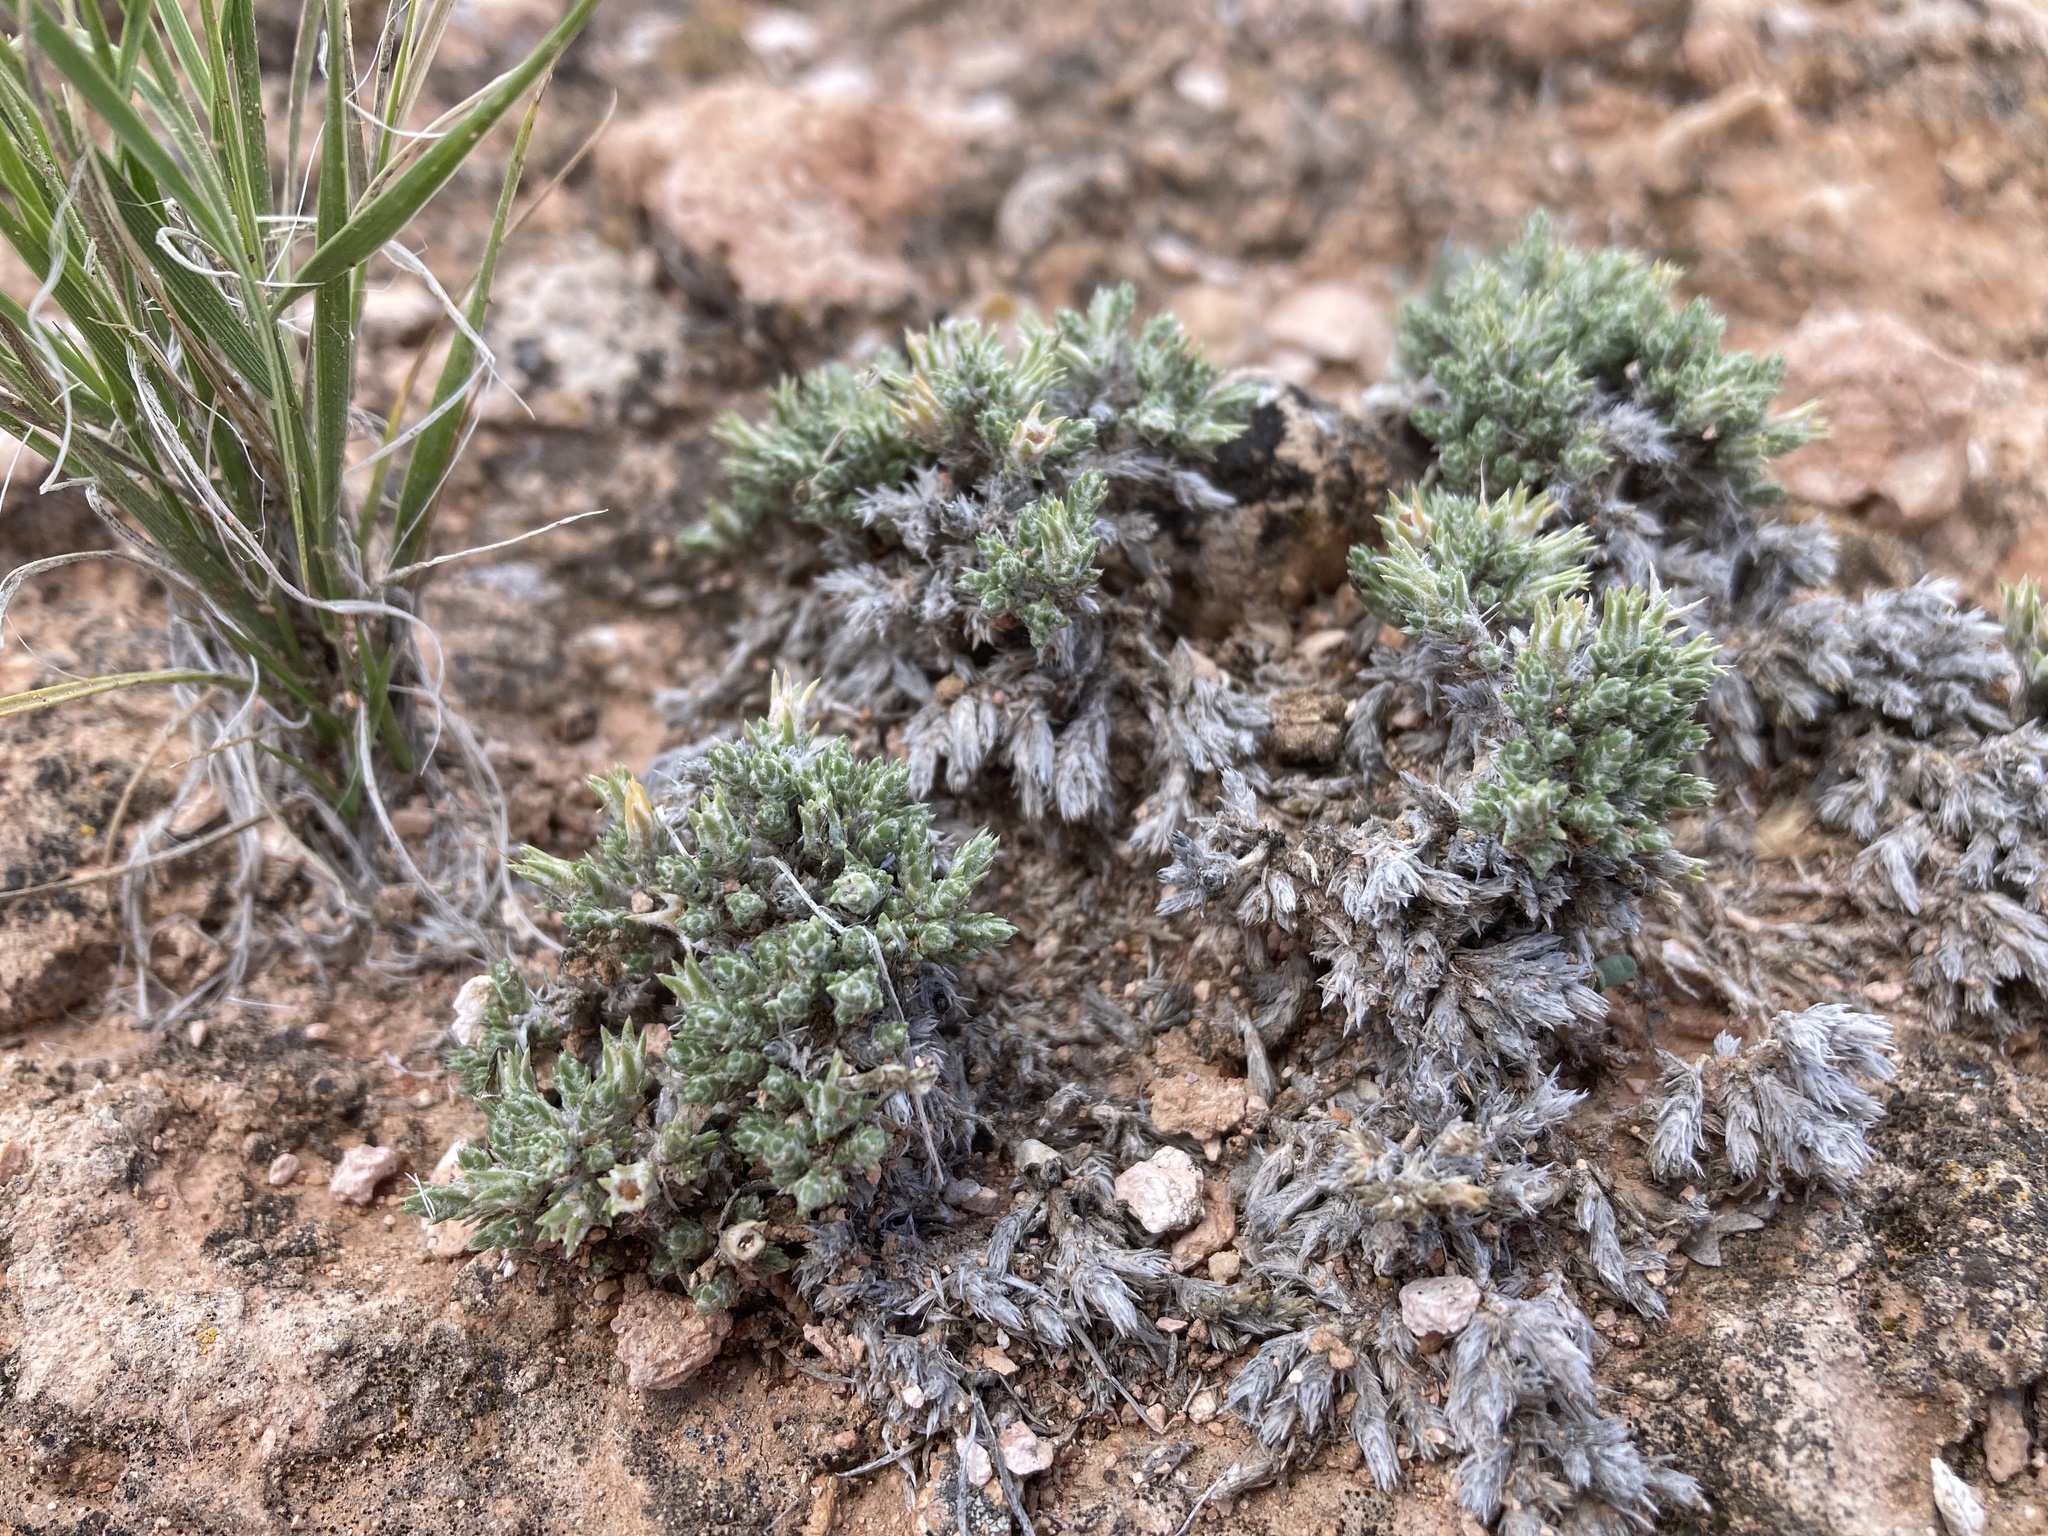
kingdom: Plantae
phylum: Tracheophyta
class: Magnoliopsida
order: Ericales
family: Polemoniaceae
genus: Phlox
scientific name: Phlox hoodii
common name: Moss phlox
